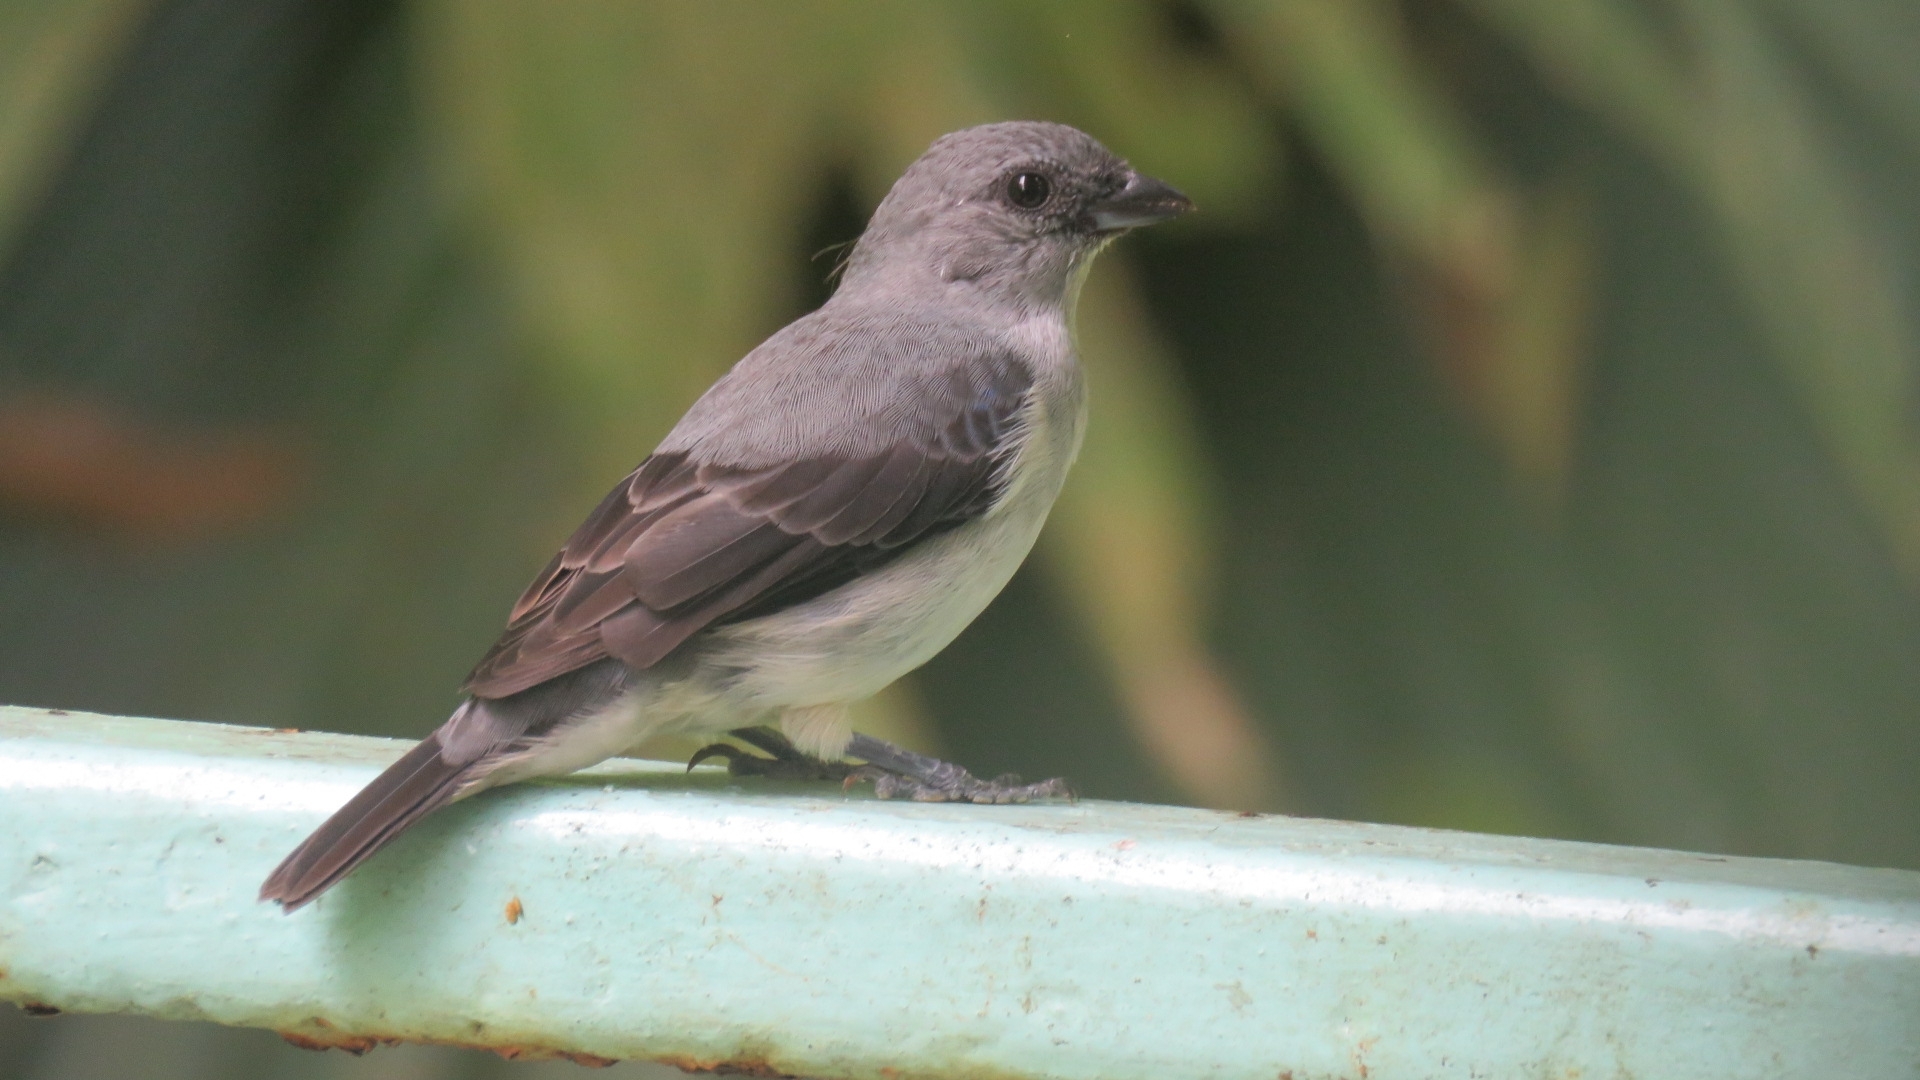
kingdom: Animalia
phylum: Chordata
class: Aves
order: Passeriformes
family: Thraupidae
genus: Tangara
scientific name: Tangara inornata
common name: Plain-colored tanager
